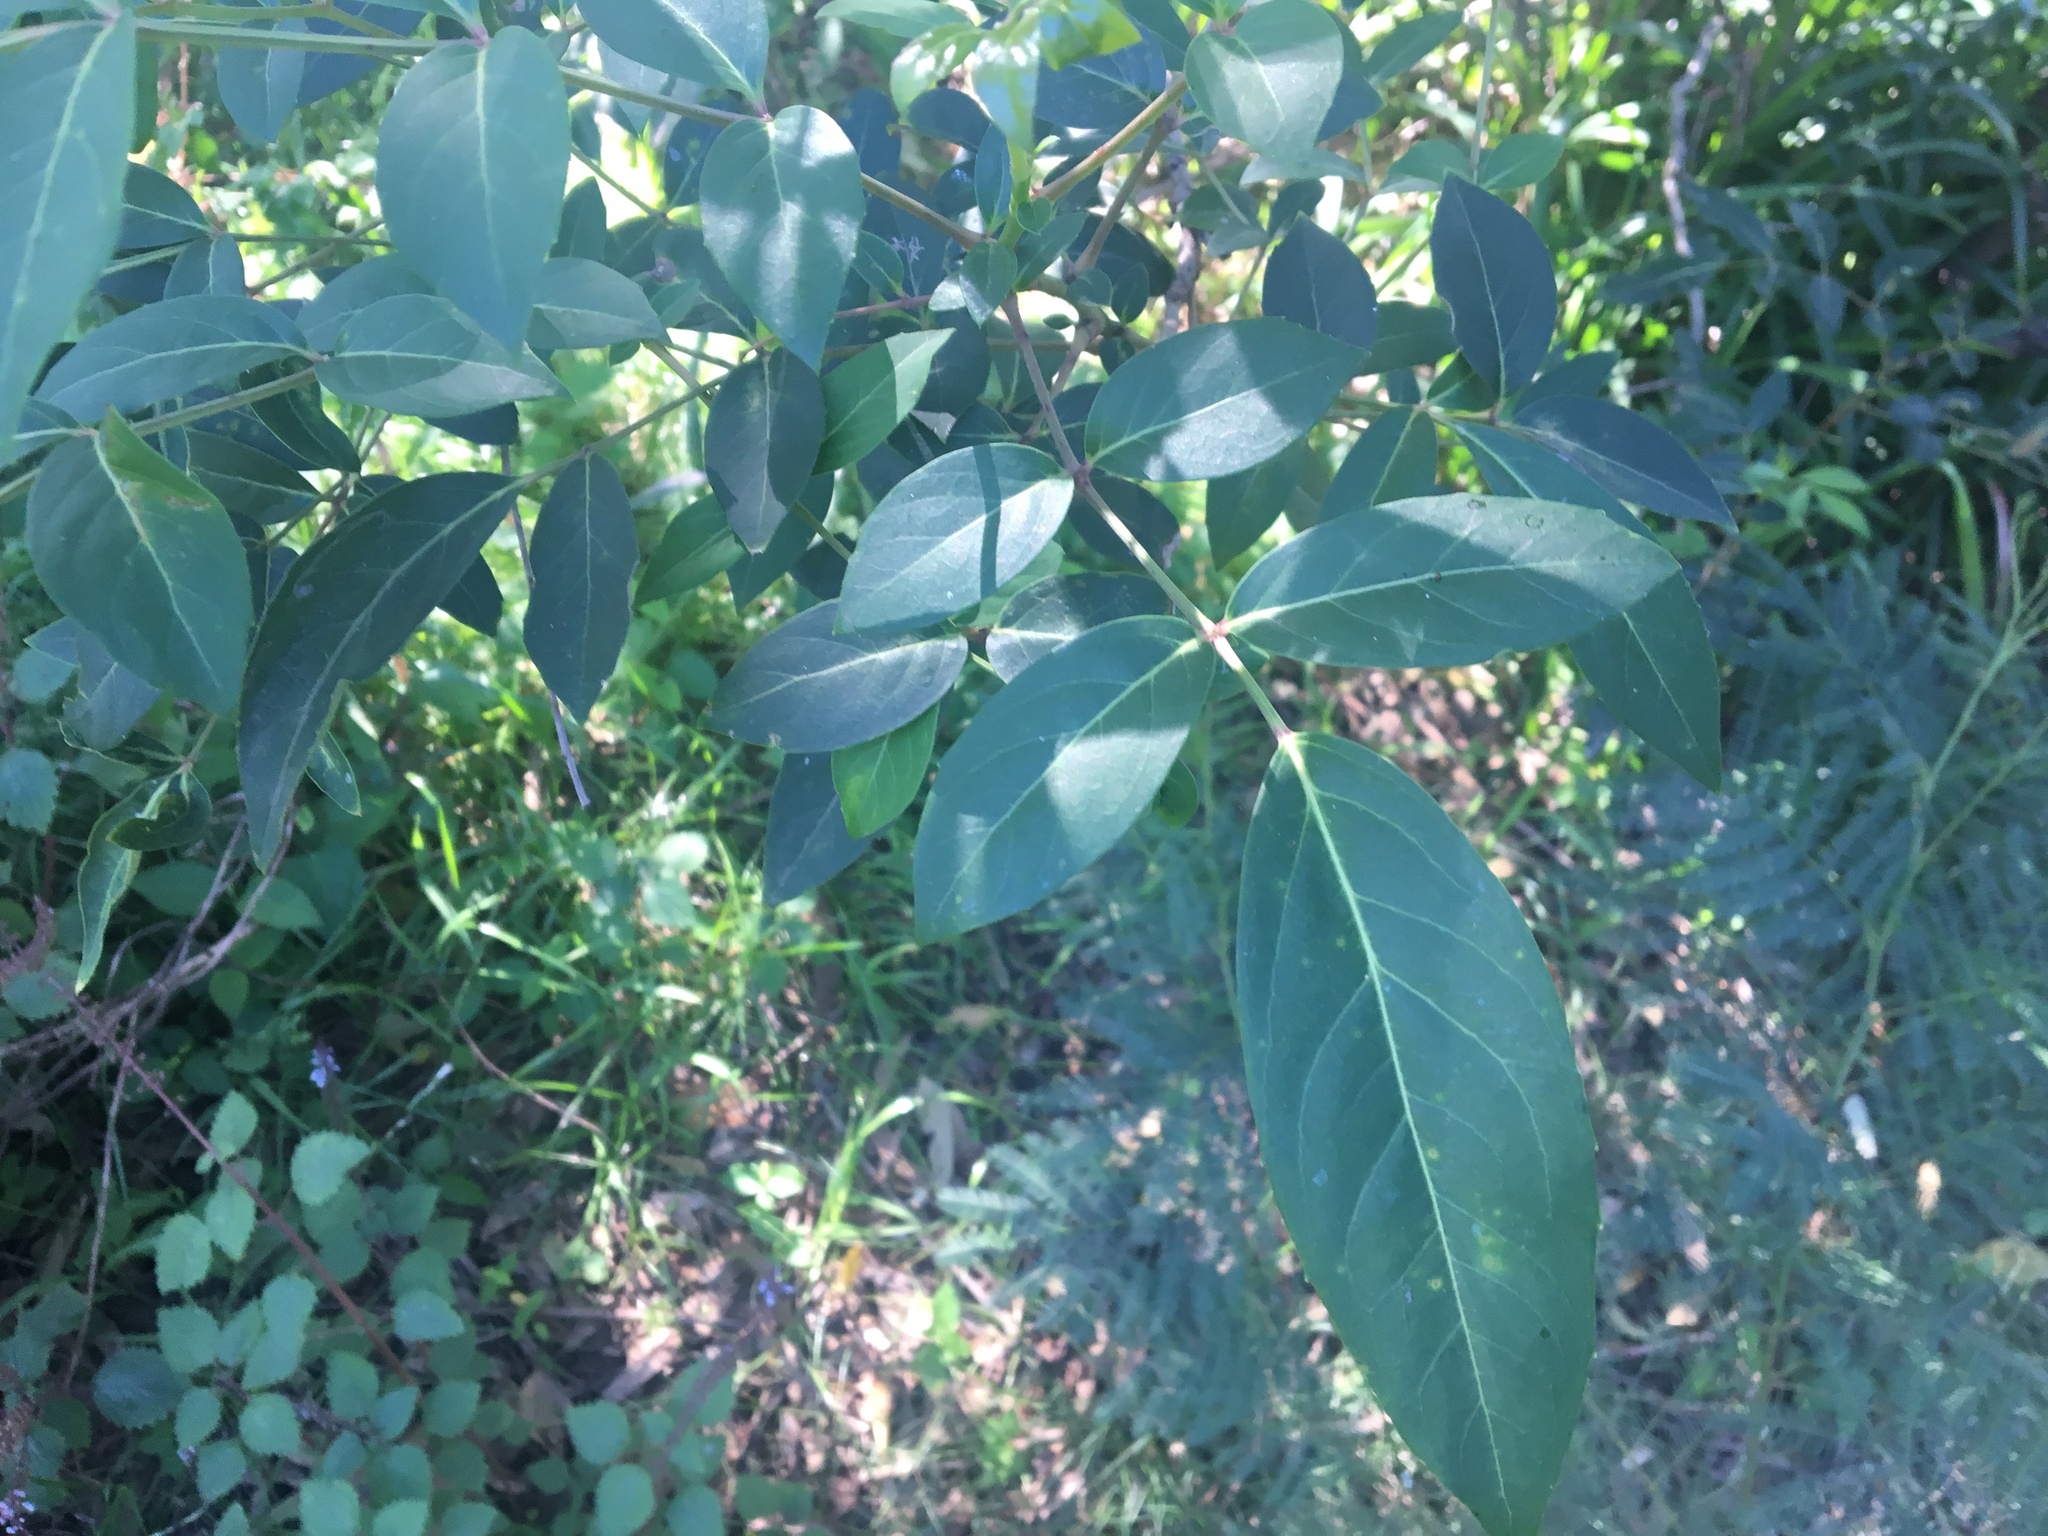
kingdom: Plantae
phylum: Tracheophyta
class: Magnoliopsida
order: Apiales
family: Araliaceae
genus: Polyscias
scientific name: Polyscias sambucifolia
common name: Elderberry-ash
